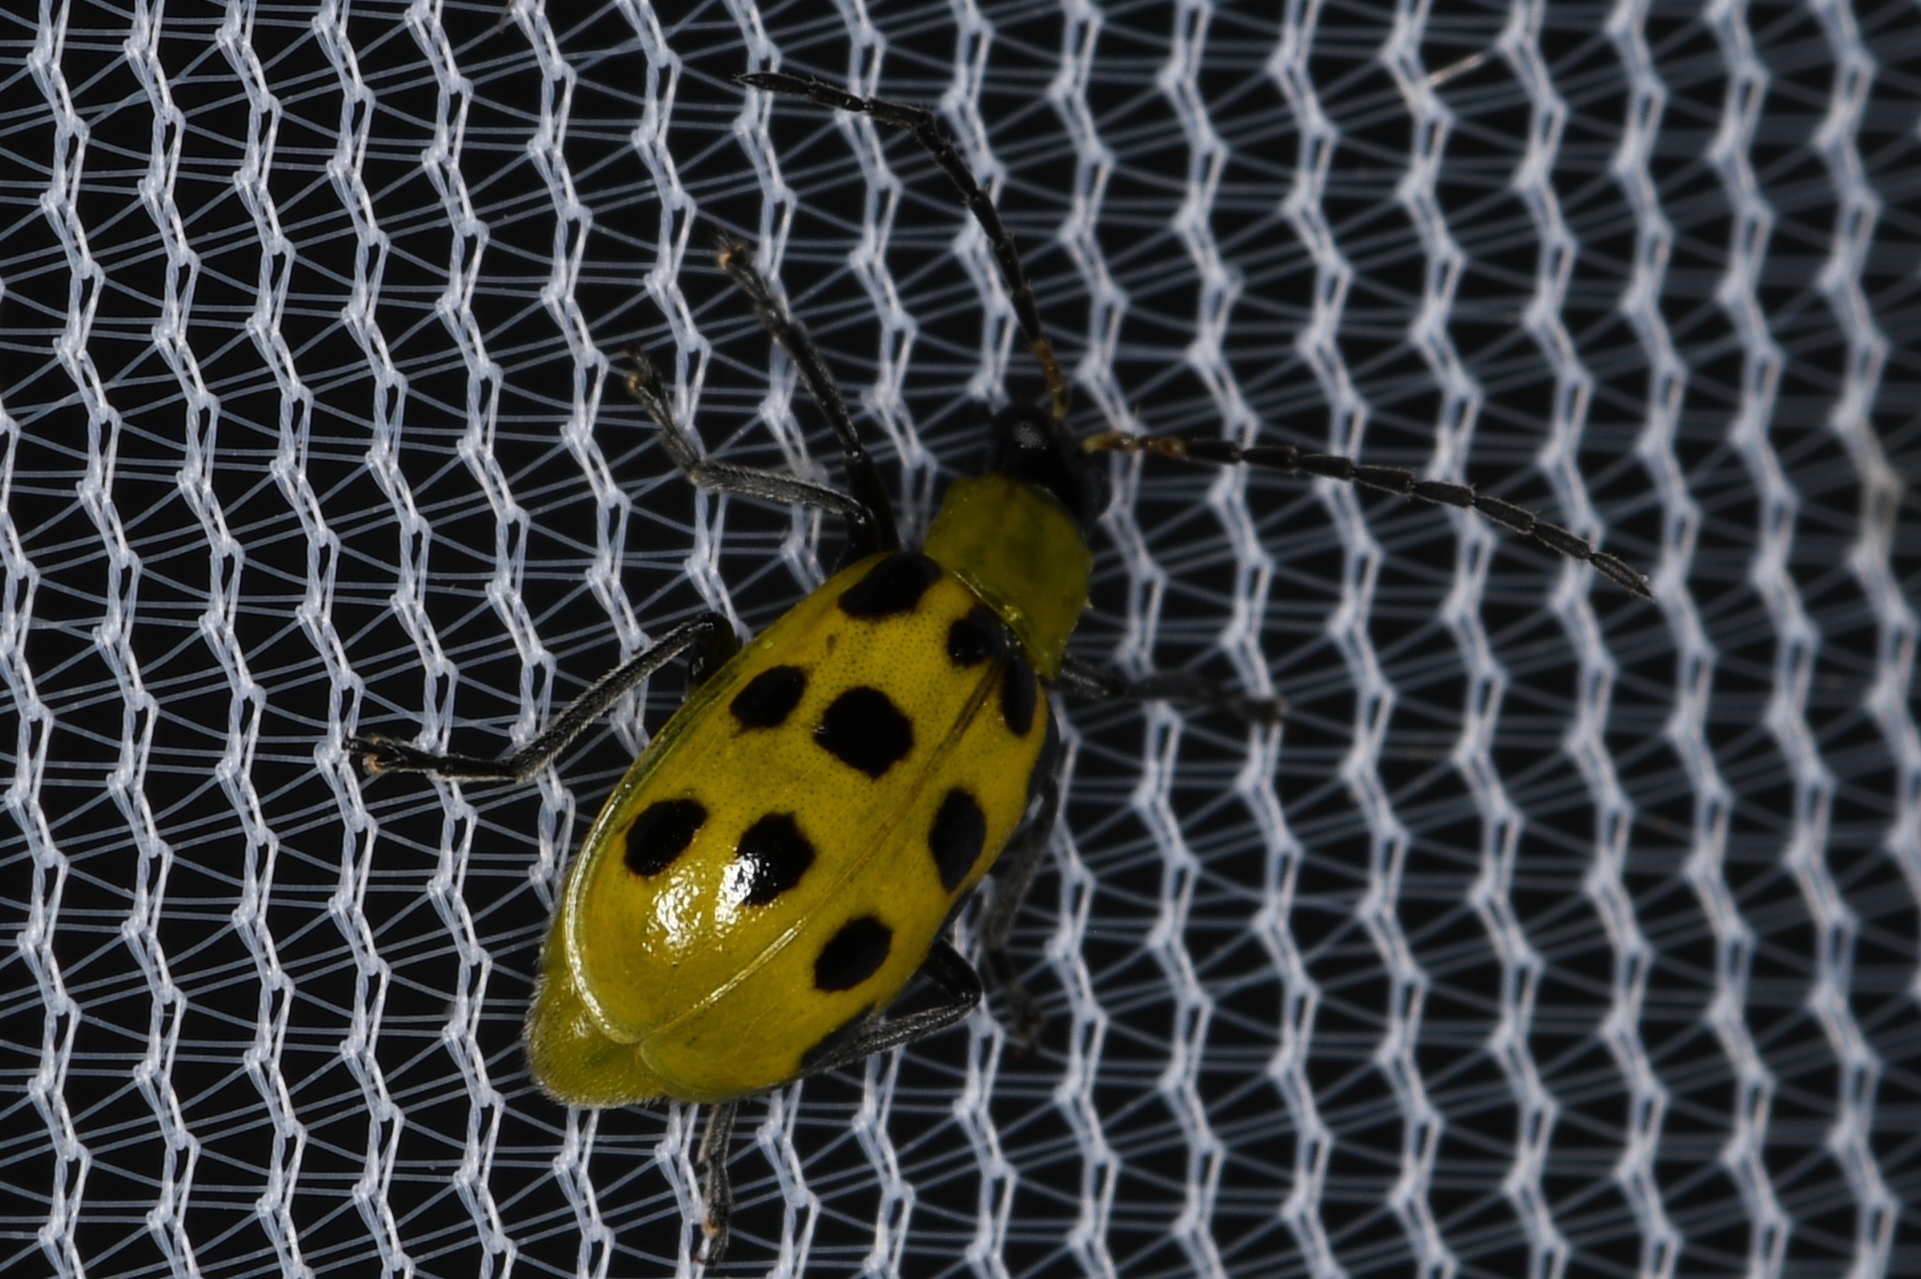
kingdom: Animalia
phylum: Arthropoda
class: Insecta
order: Coleoptera
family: Chrysomelidae
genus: Diabrotica
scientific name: Diabrotica undecimpunctata
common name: Spotted cucumber beetle
